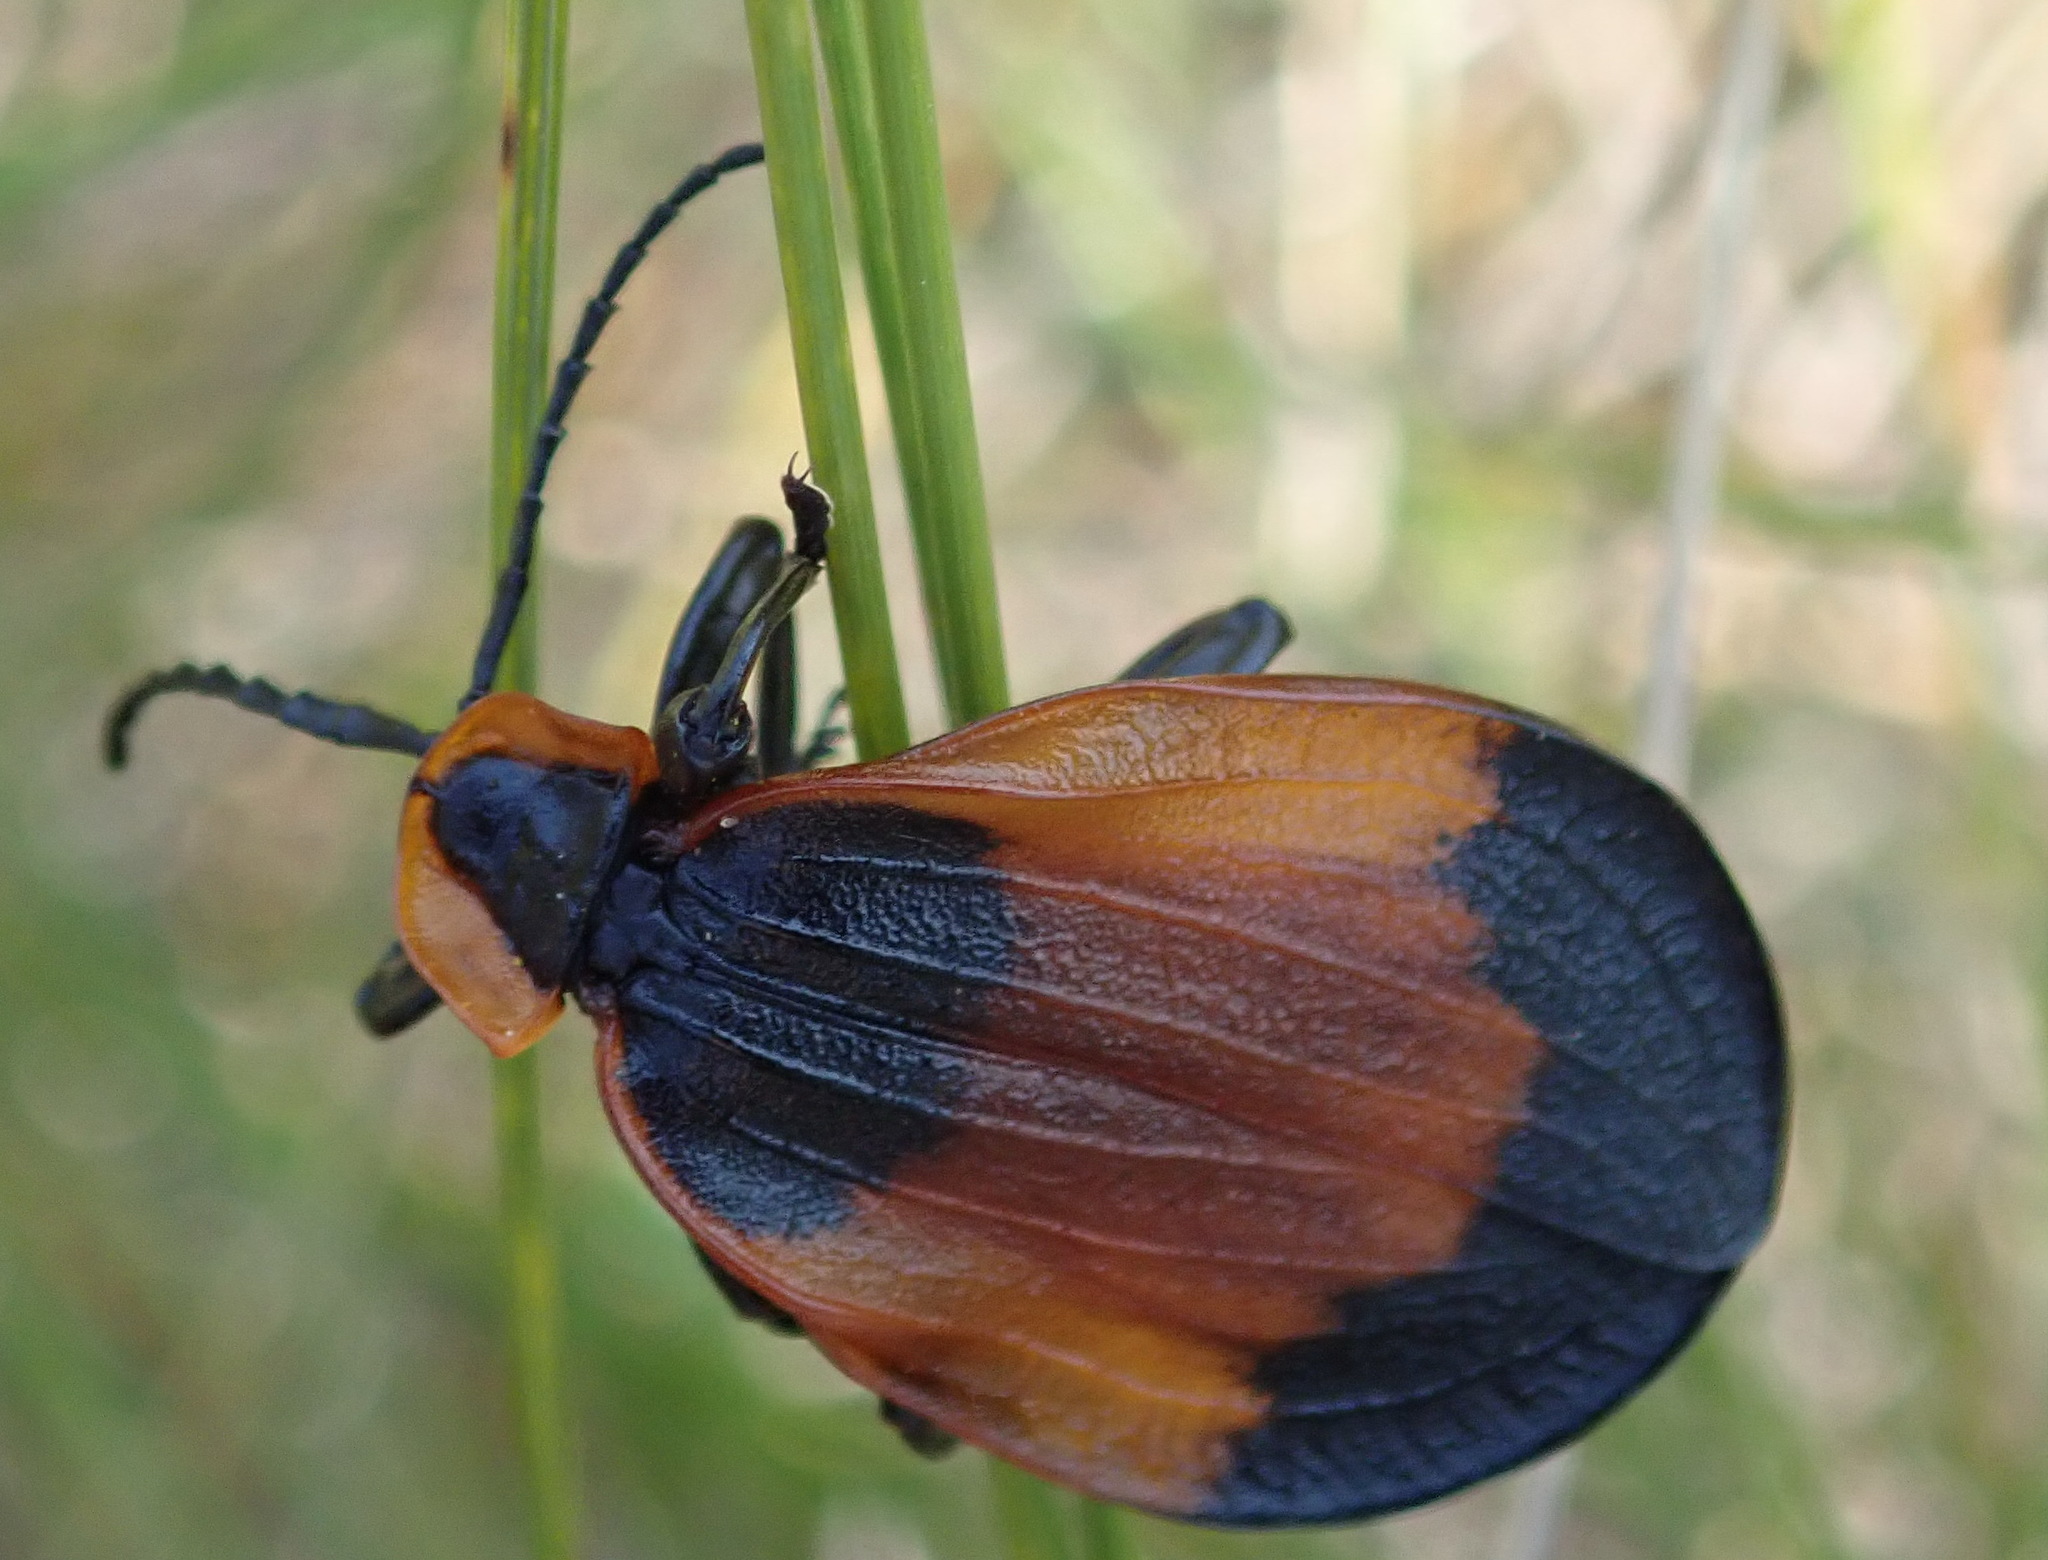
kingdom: Animalia
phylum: Arthropoda
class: Insecta
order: Coleoptera
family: Lycidae
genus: Lycus
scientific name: Lycus
